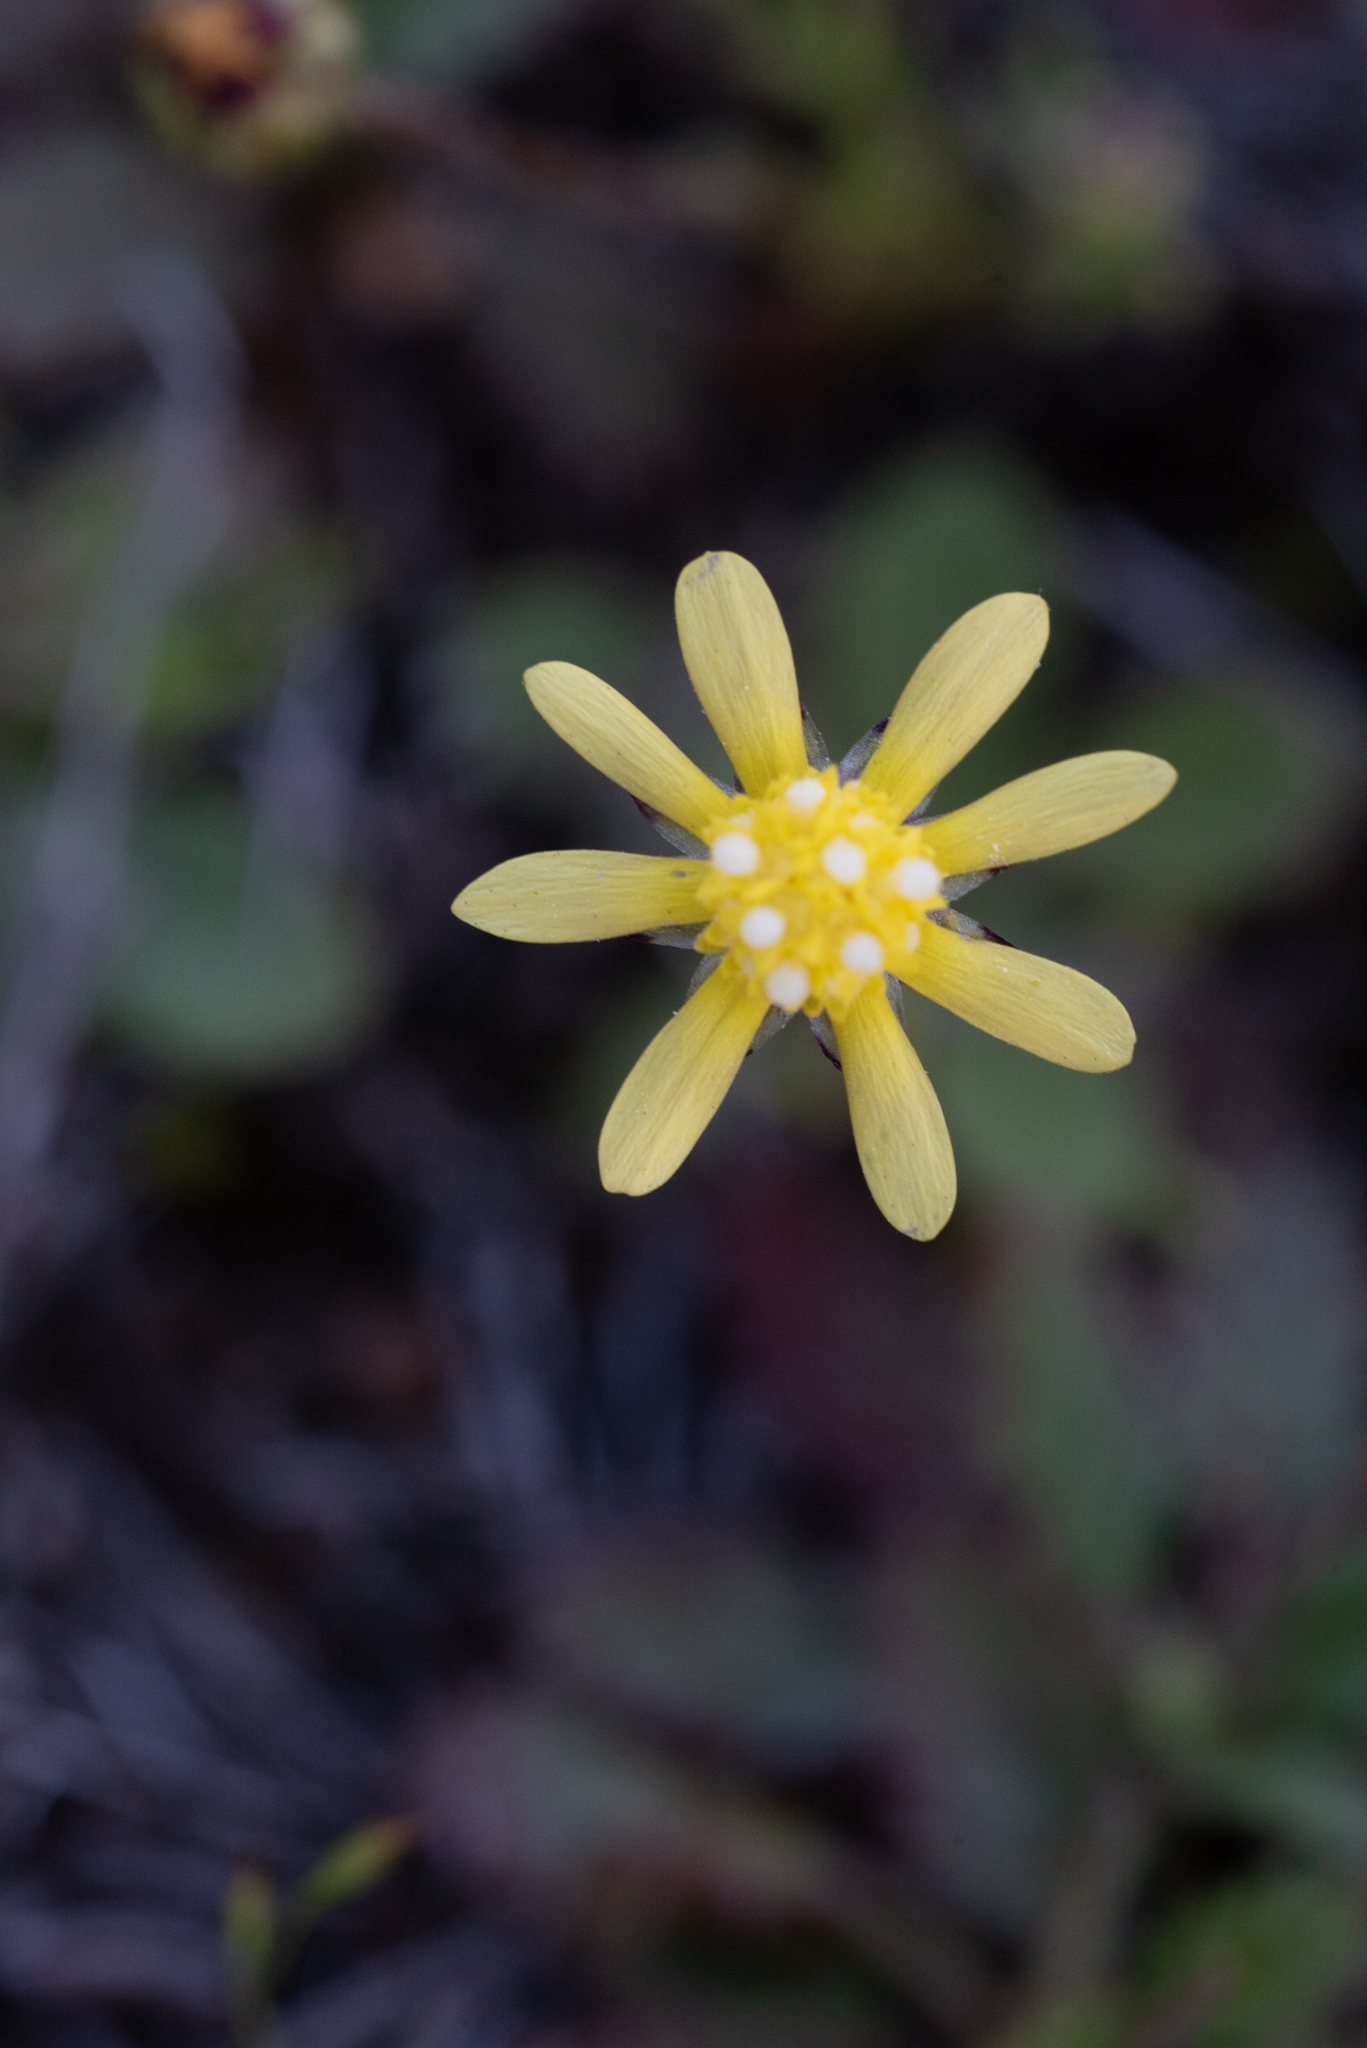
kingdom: Plantae
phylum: Tracheophyta
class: Magnoliopsida
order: Asterales
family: Asteraceae
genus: Blennosperma
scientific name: Blennosperma nanum
